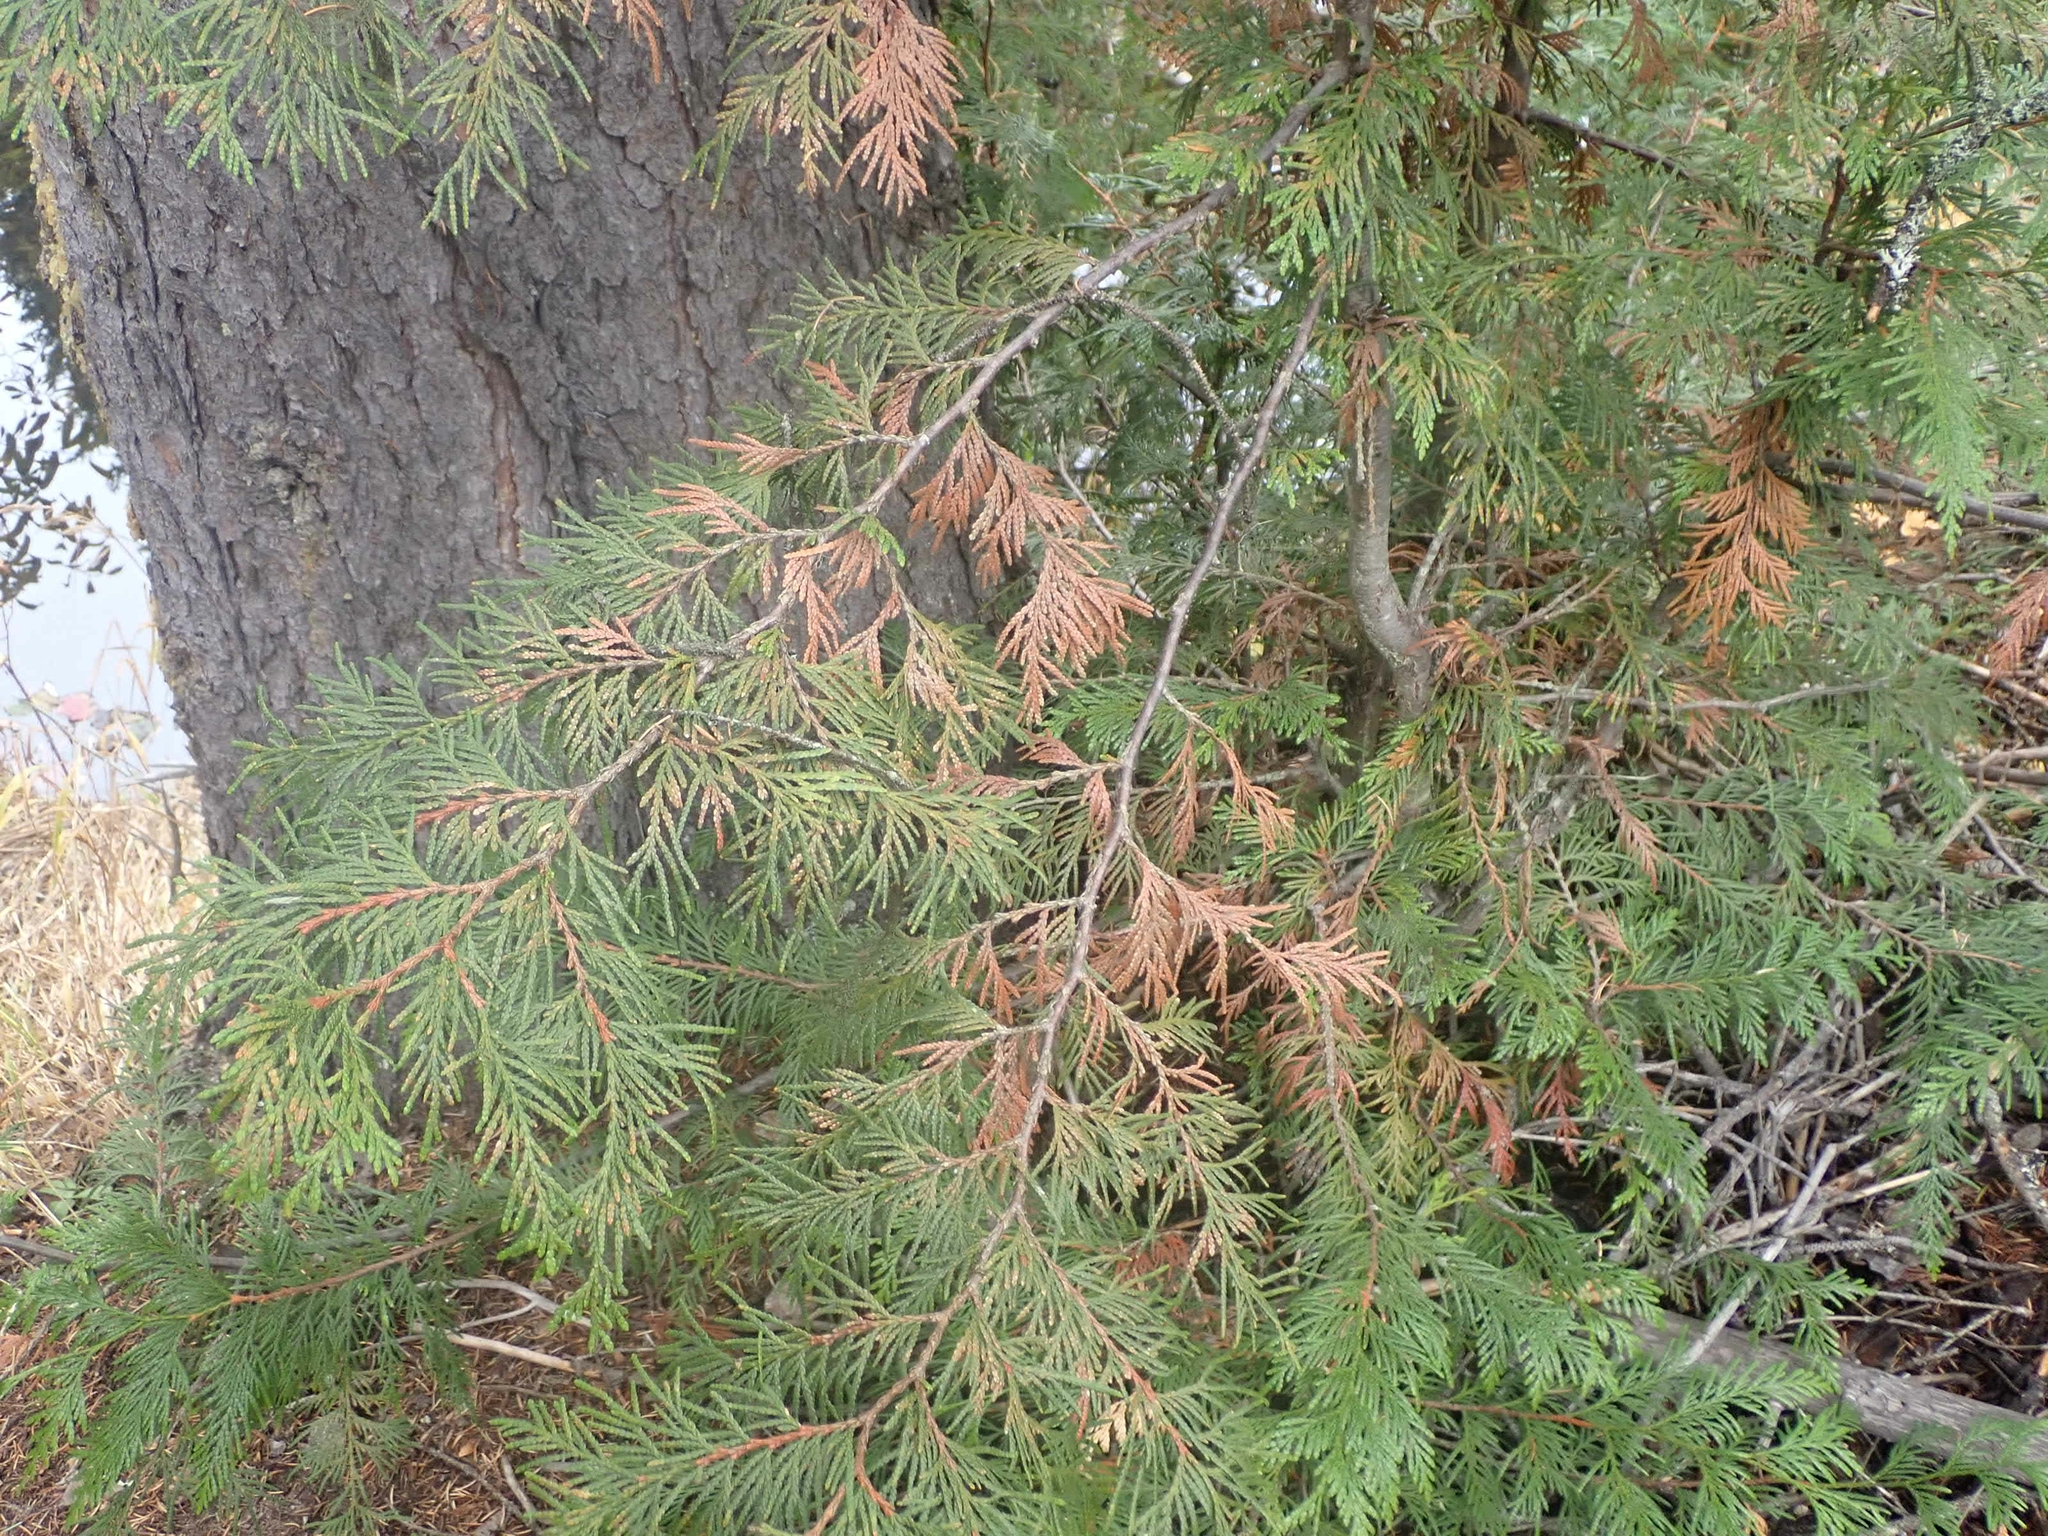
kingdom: Plantae
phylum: Tracheophyta
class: Pinopsida
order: Pinales
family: Cupressaceae
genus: Thuja
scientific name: Thuja plicata
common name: Western red-cedar
